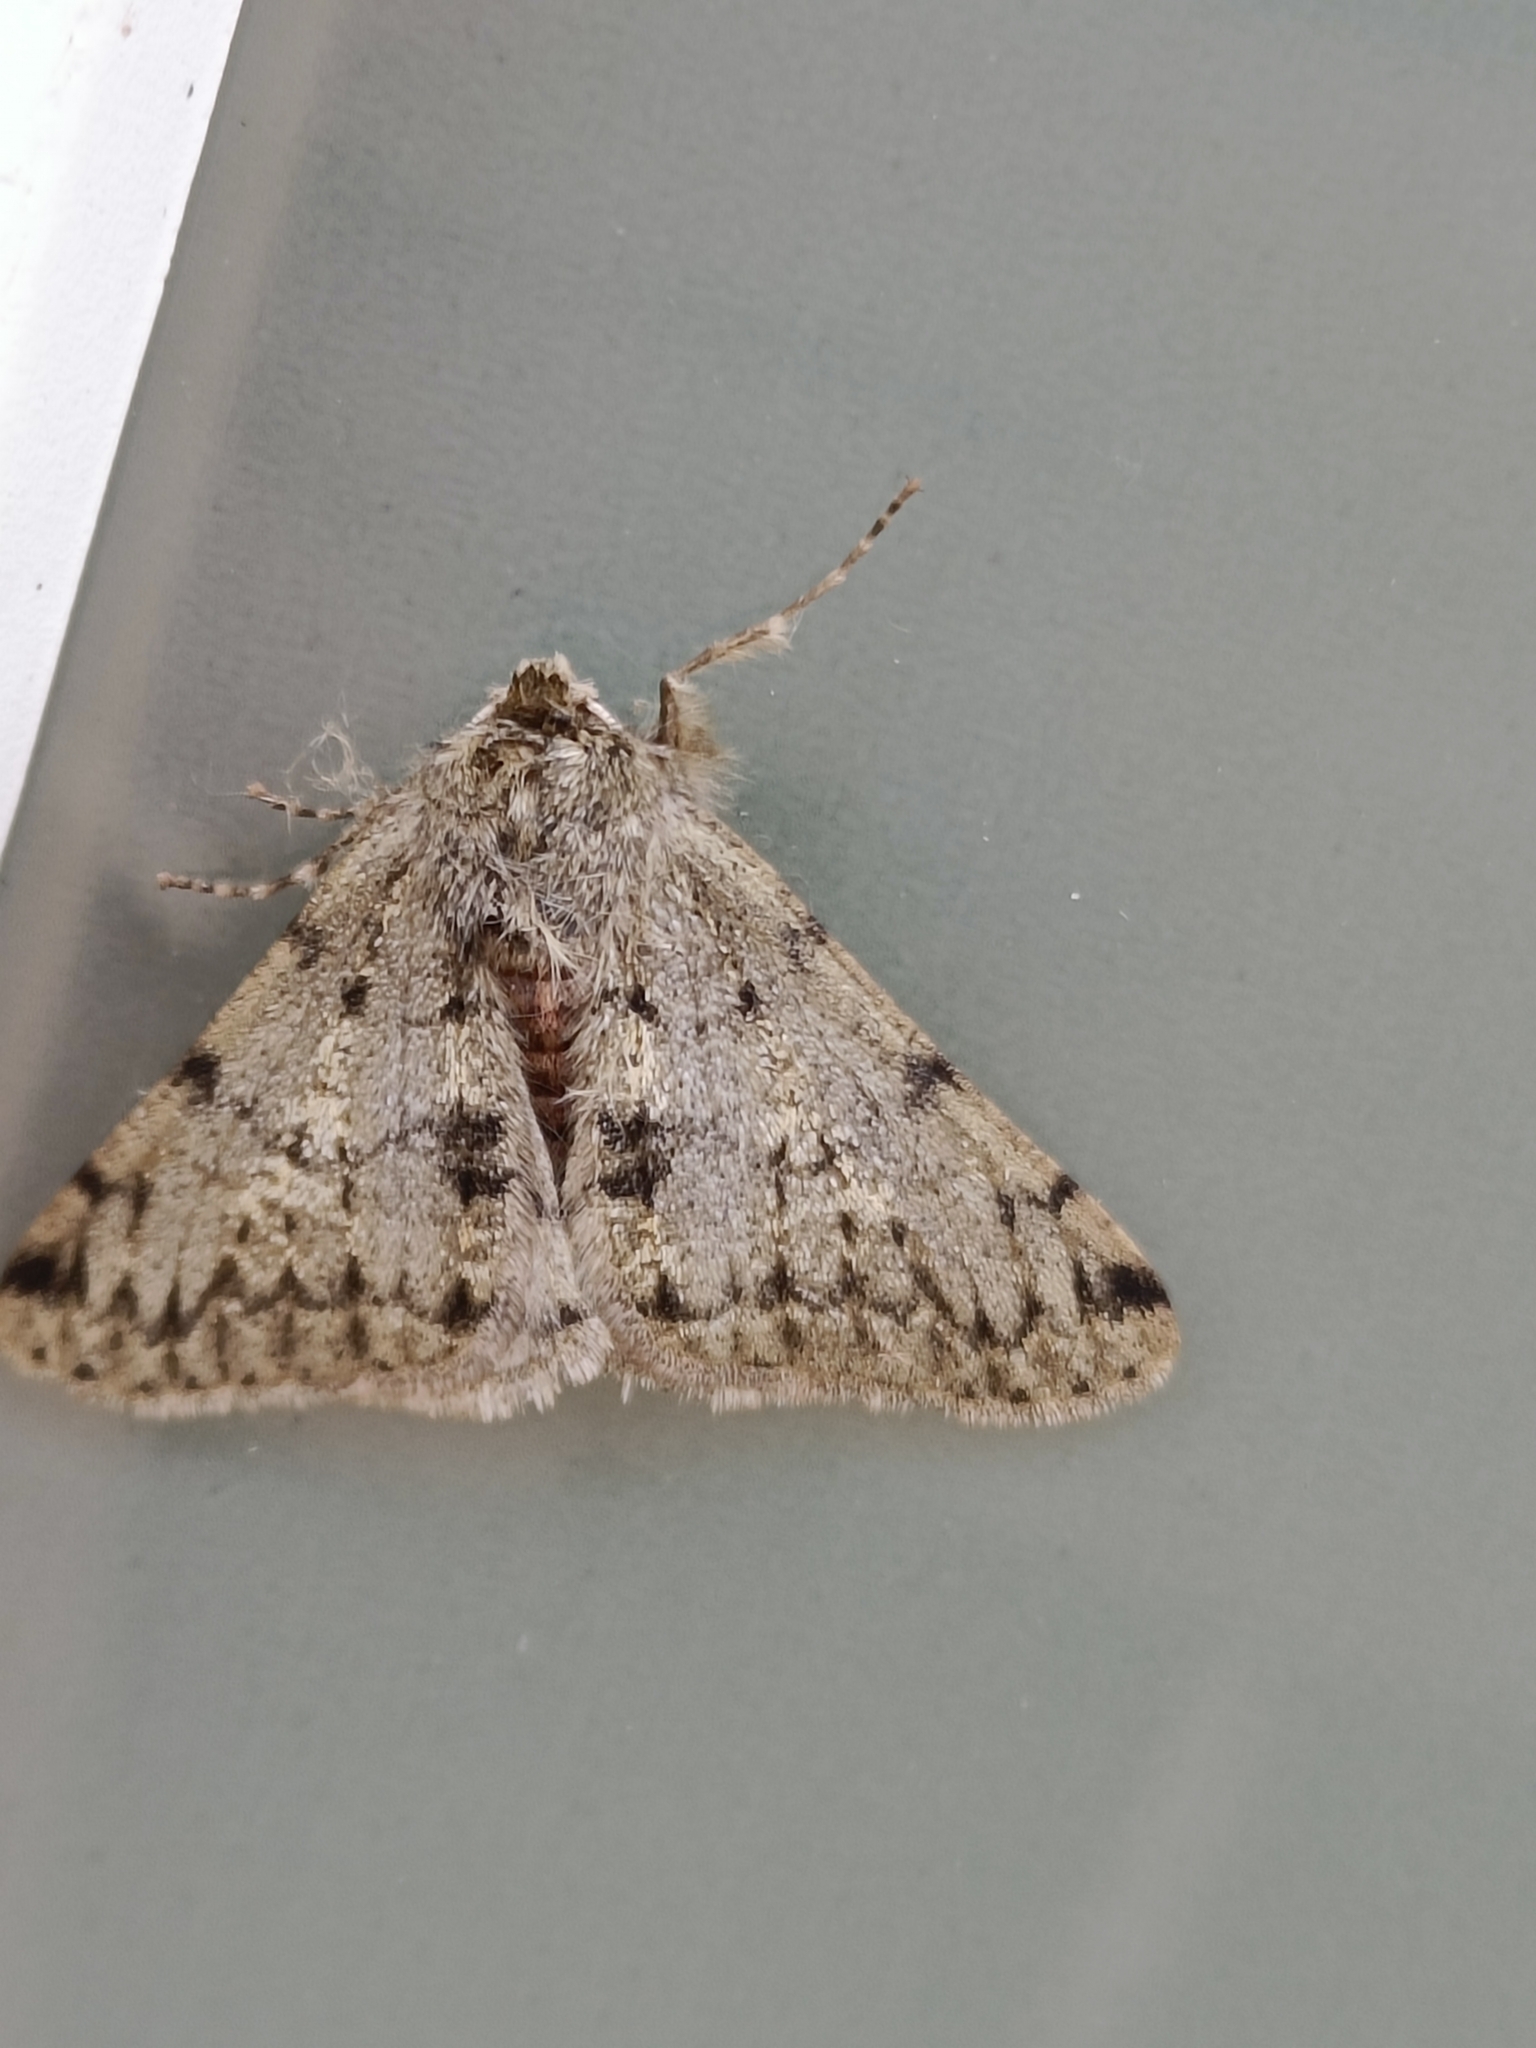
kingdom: Animalia
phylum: Arthropoda
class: Insecta
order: Lepidoptera
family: Geometridae
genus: Phigalia
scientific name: Phigalia pilosaria
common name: Pale brindled beauty
